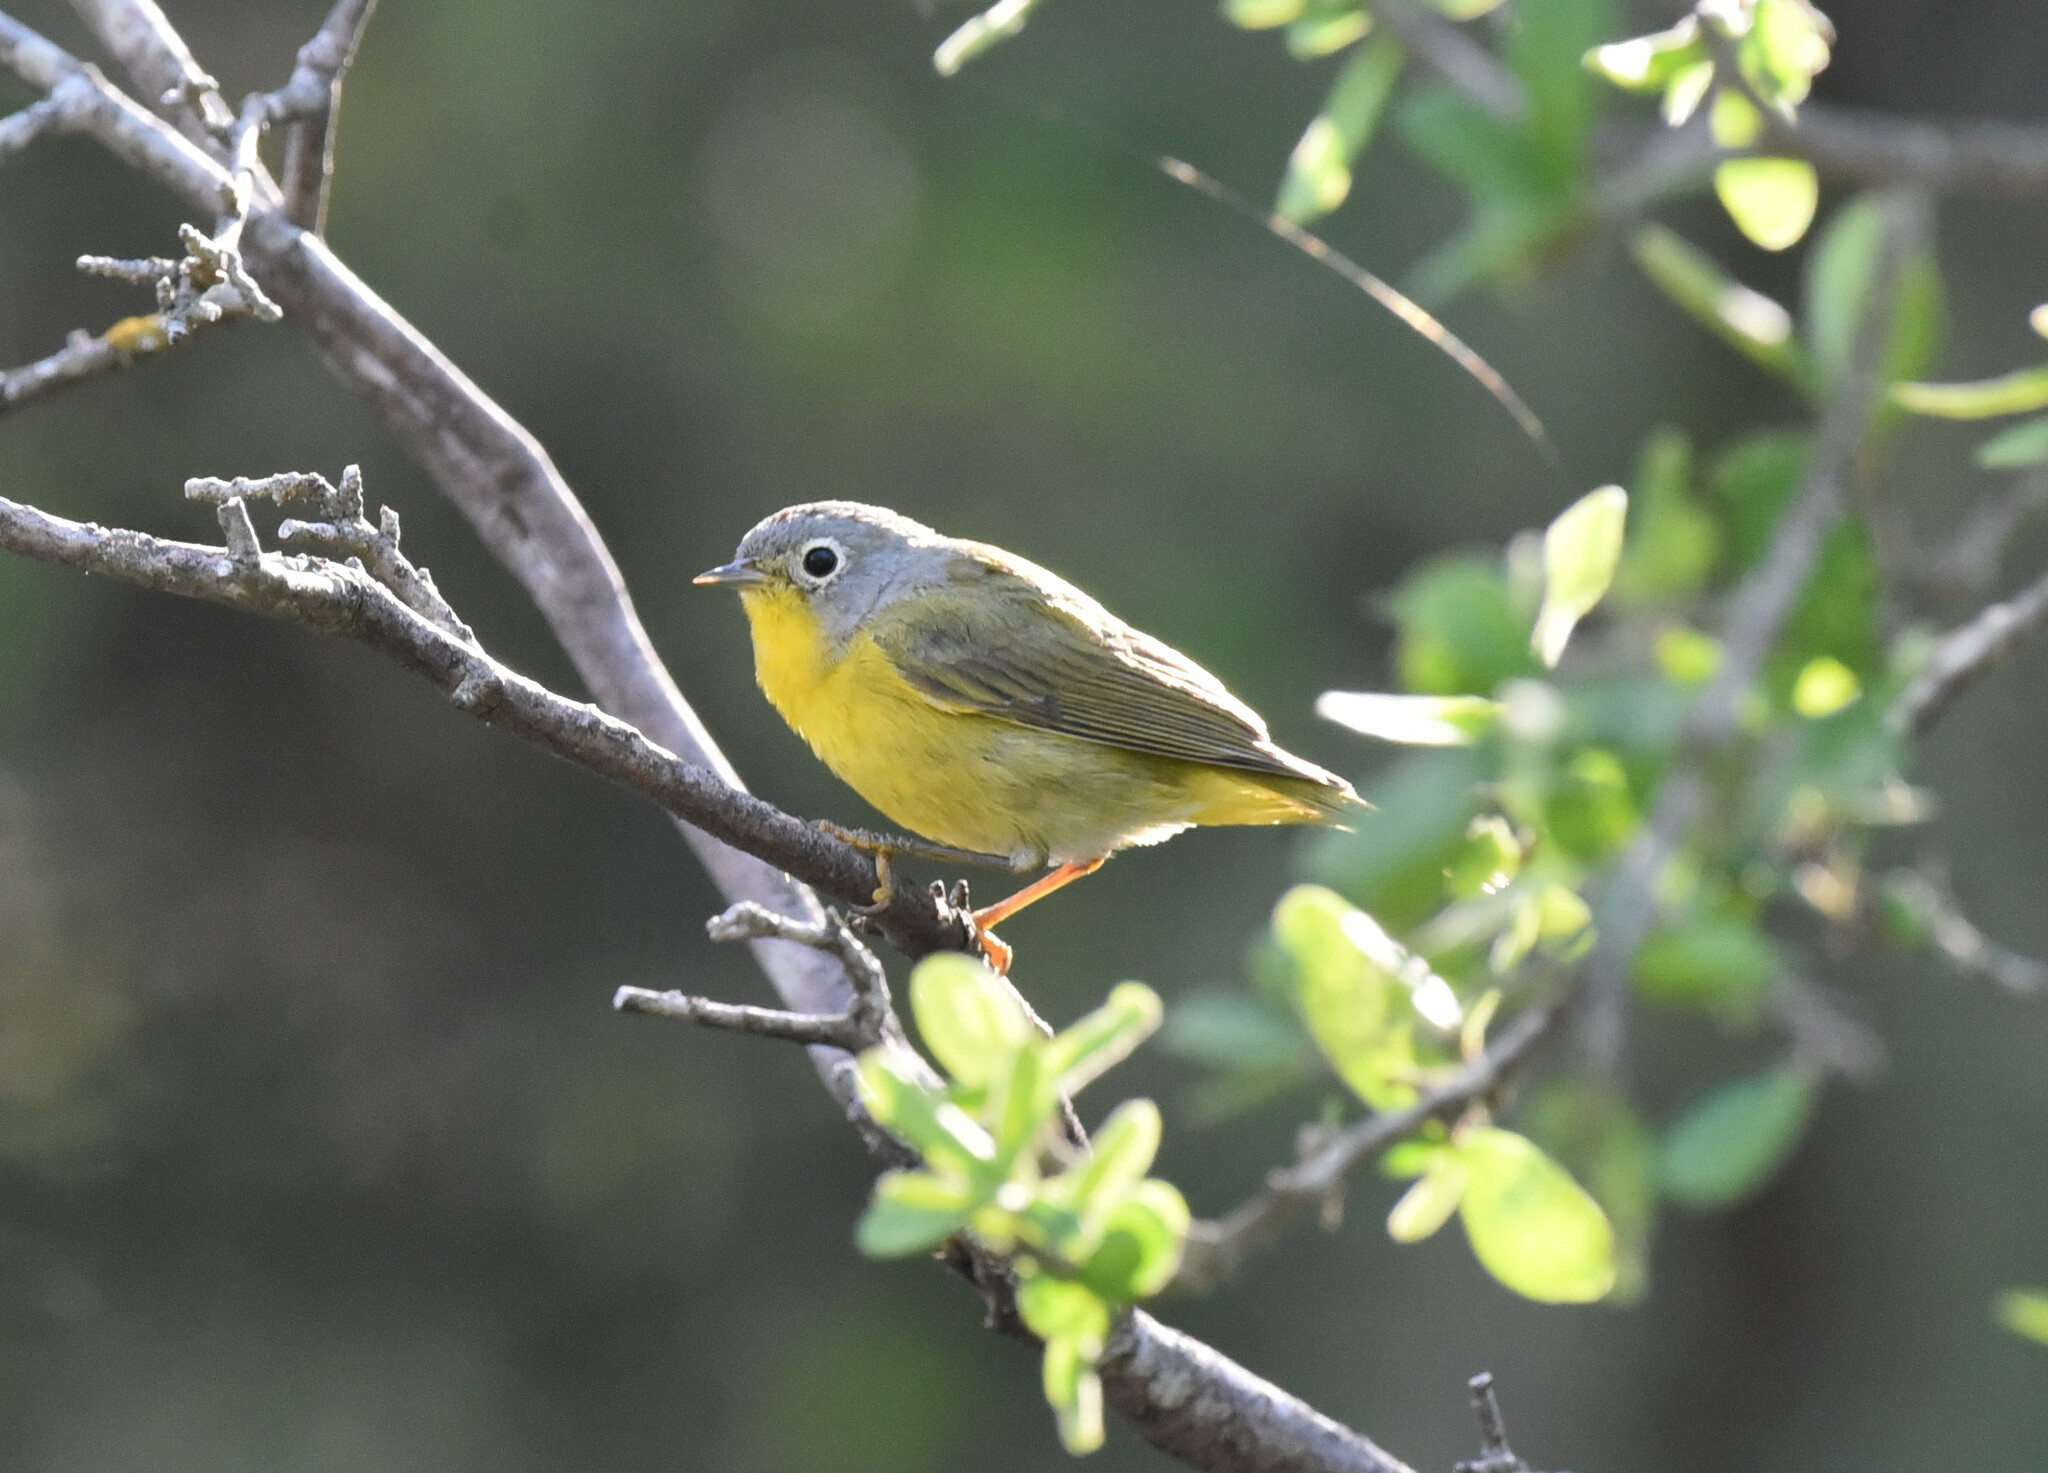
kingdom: Animalia
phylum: Chordata
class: Aves
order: Passeriformes
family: Parulidae
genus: Leiothlypis
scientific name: Leiothlypis ruficapilla
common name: Nashville warbler
